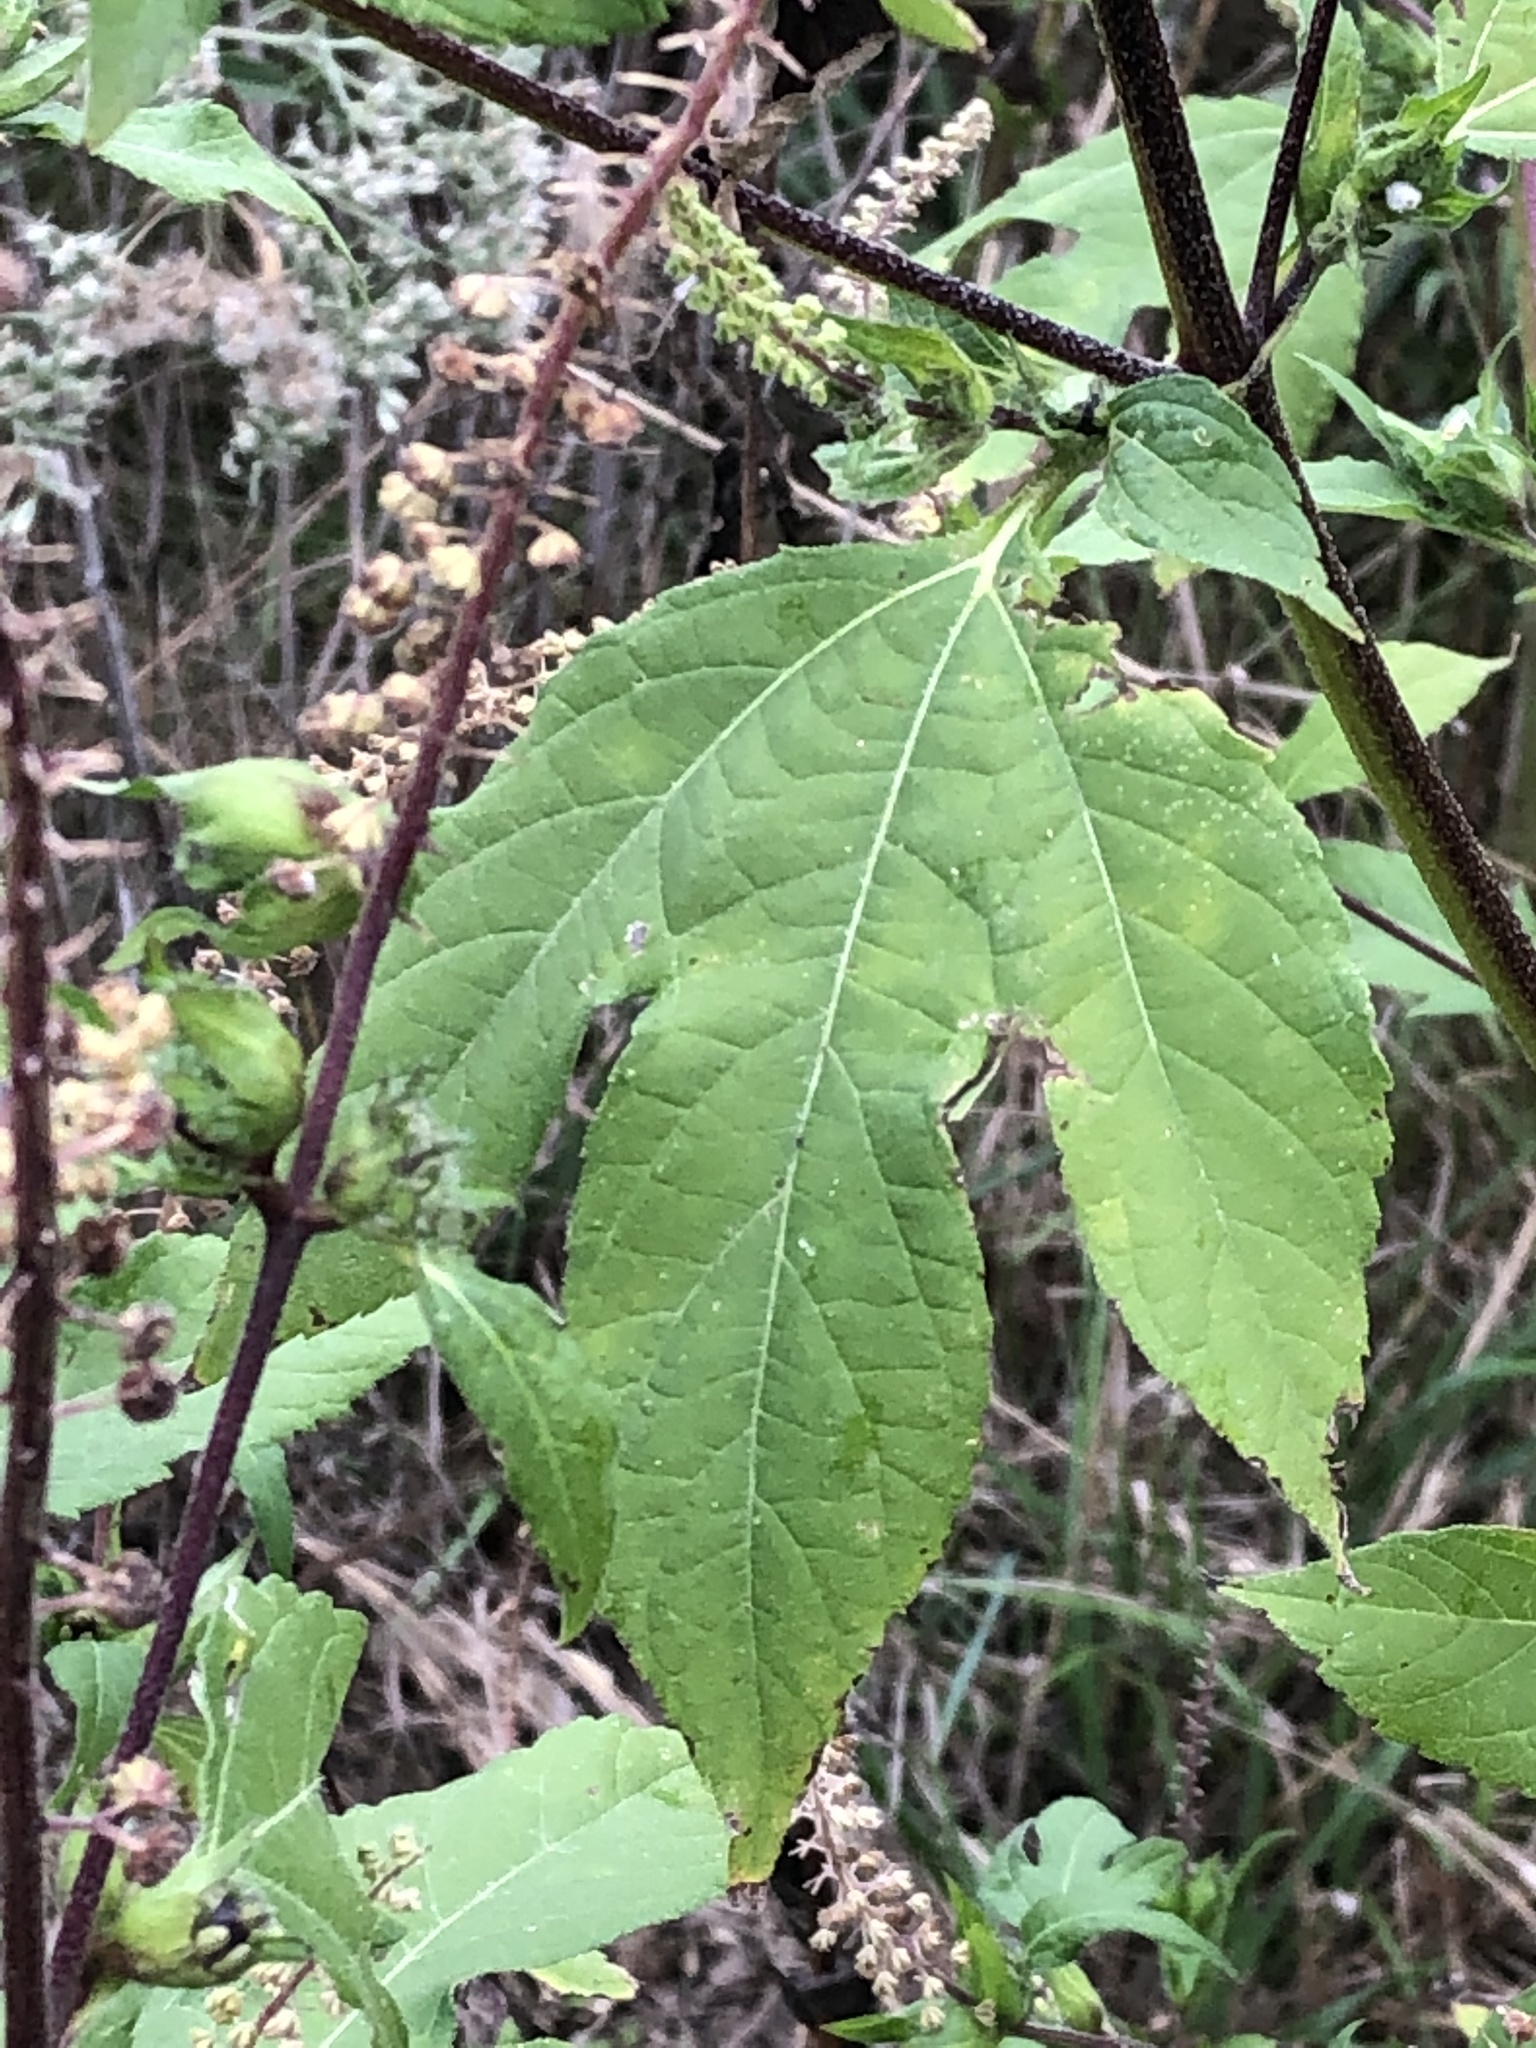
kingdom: Plantae
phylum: Tracheophyta
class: Magnoliopsida
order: Asterales
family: Asteraceae
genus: Ambrosia
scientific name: Ambrosia trifida
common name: Giant ragweed
